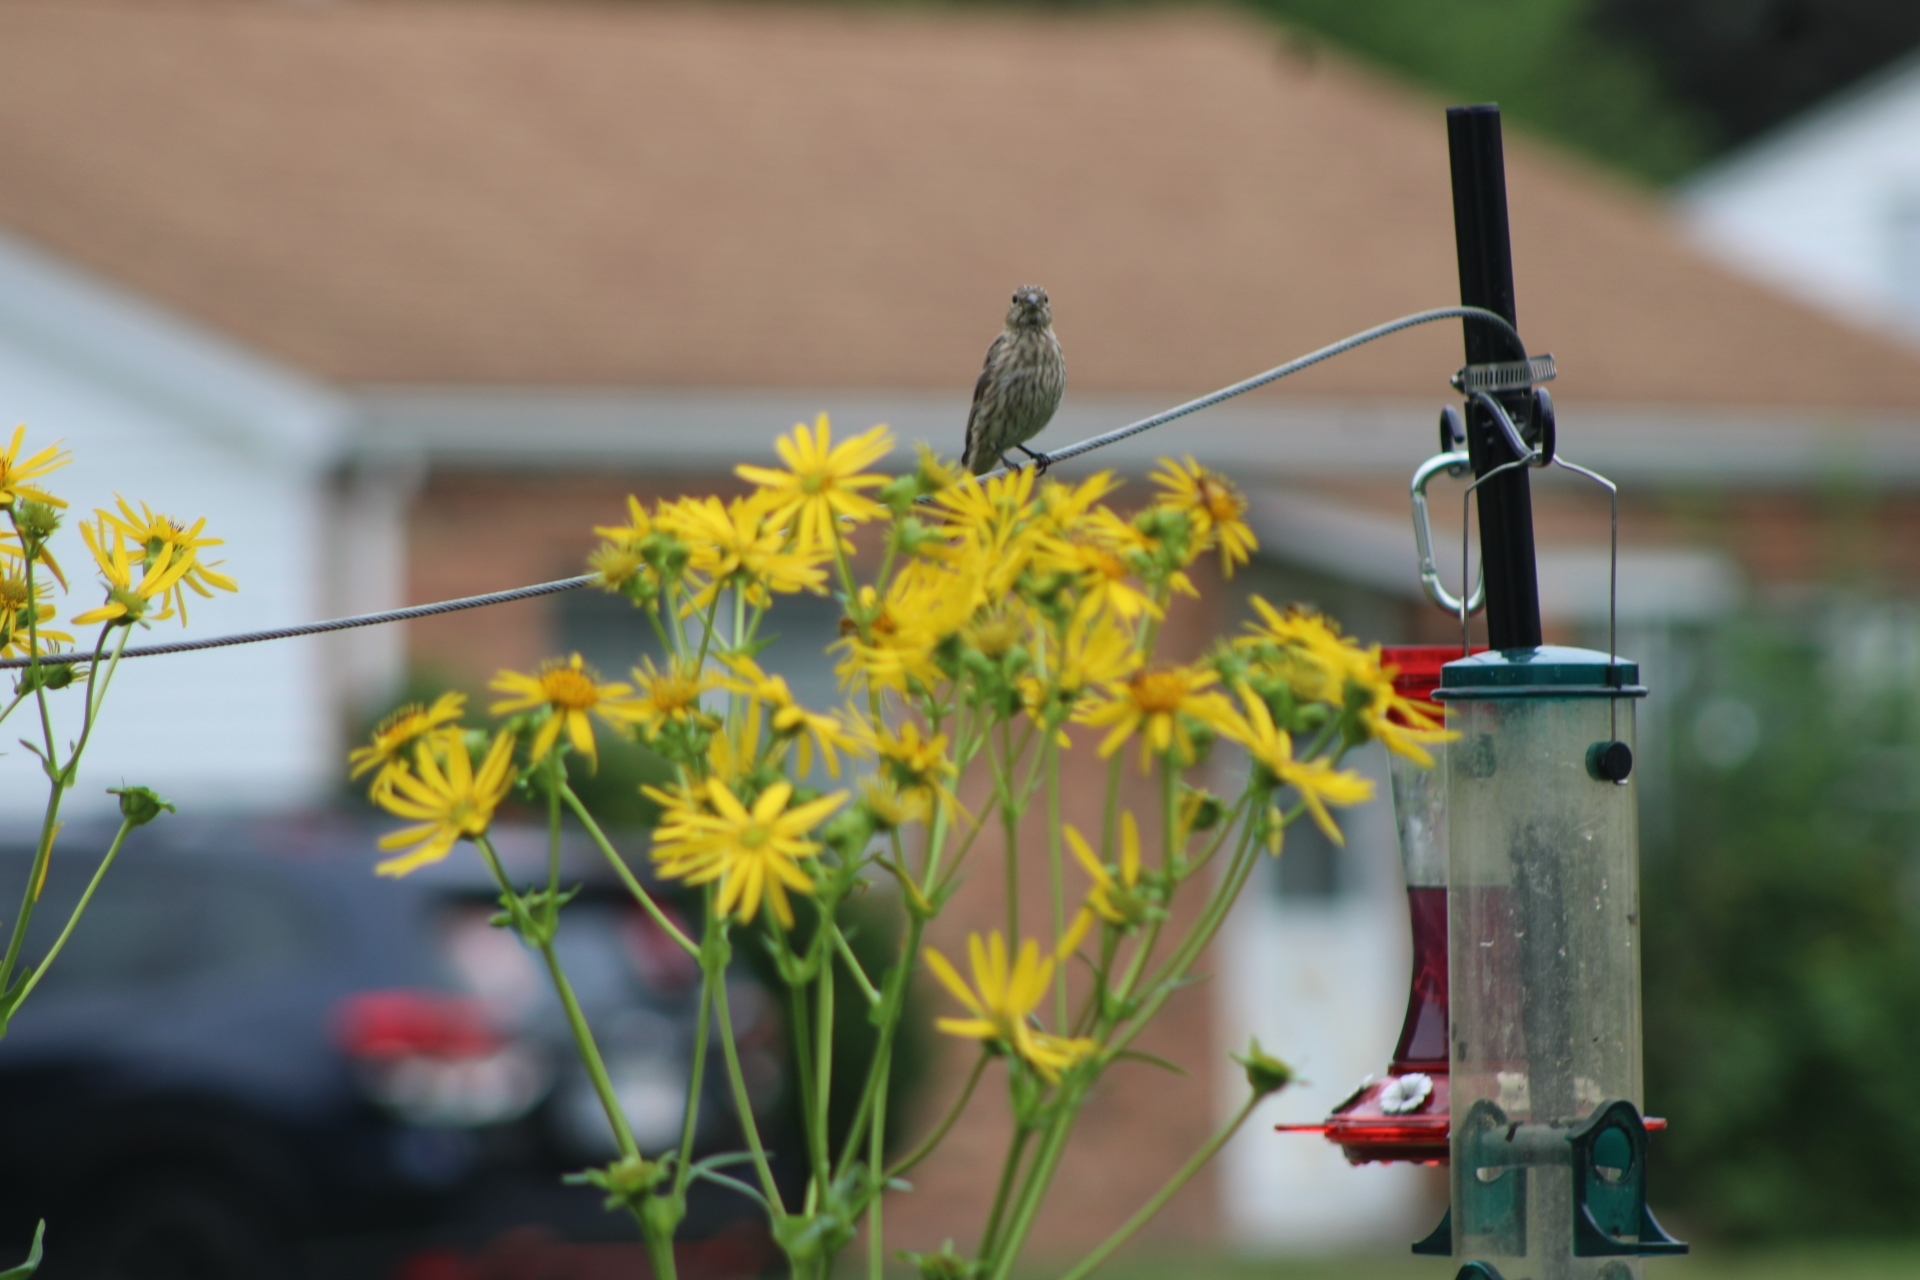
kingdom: Animalia
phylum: Chordata
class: Aves
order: Passeriformes
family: Fringillidae
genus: Haemorhous
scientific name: Haemorhous mexicanus
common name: House finch
